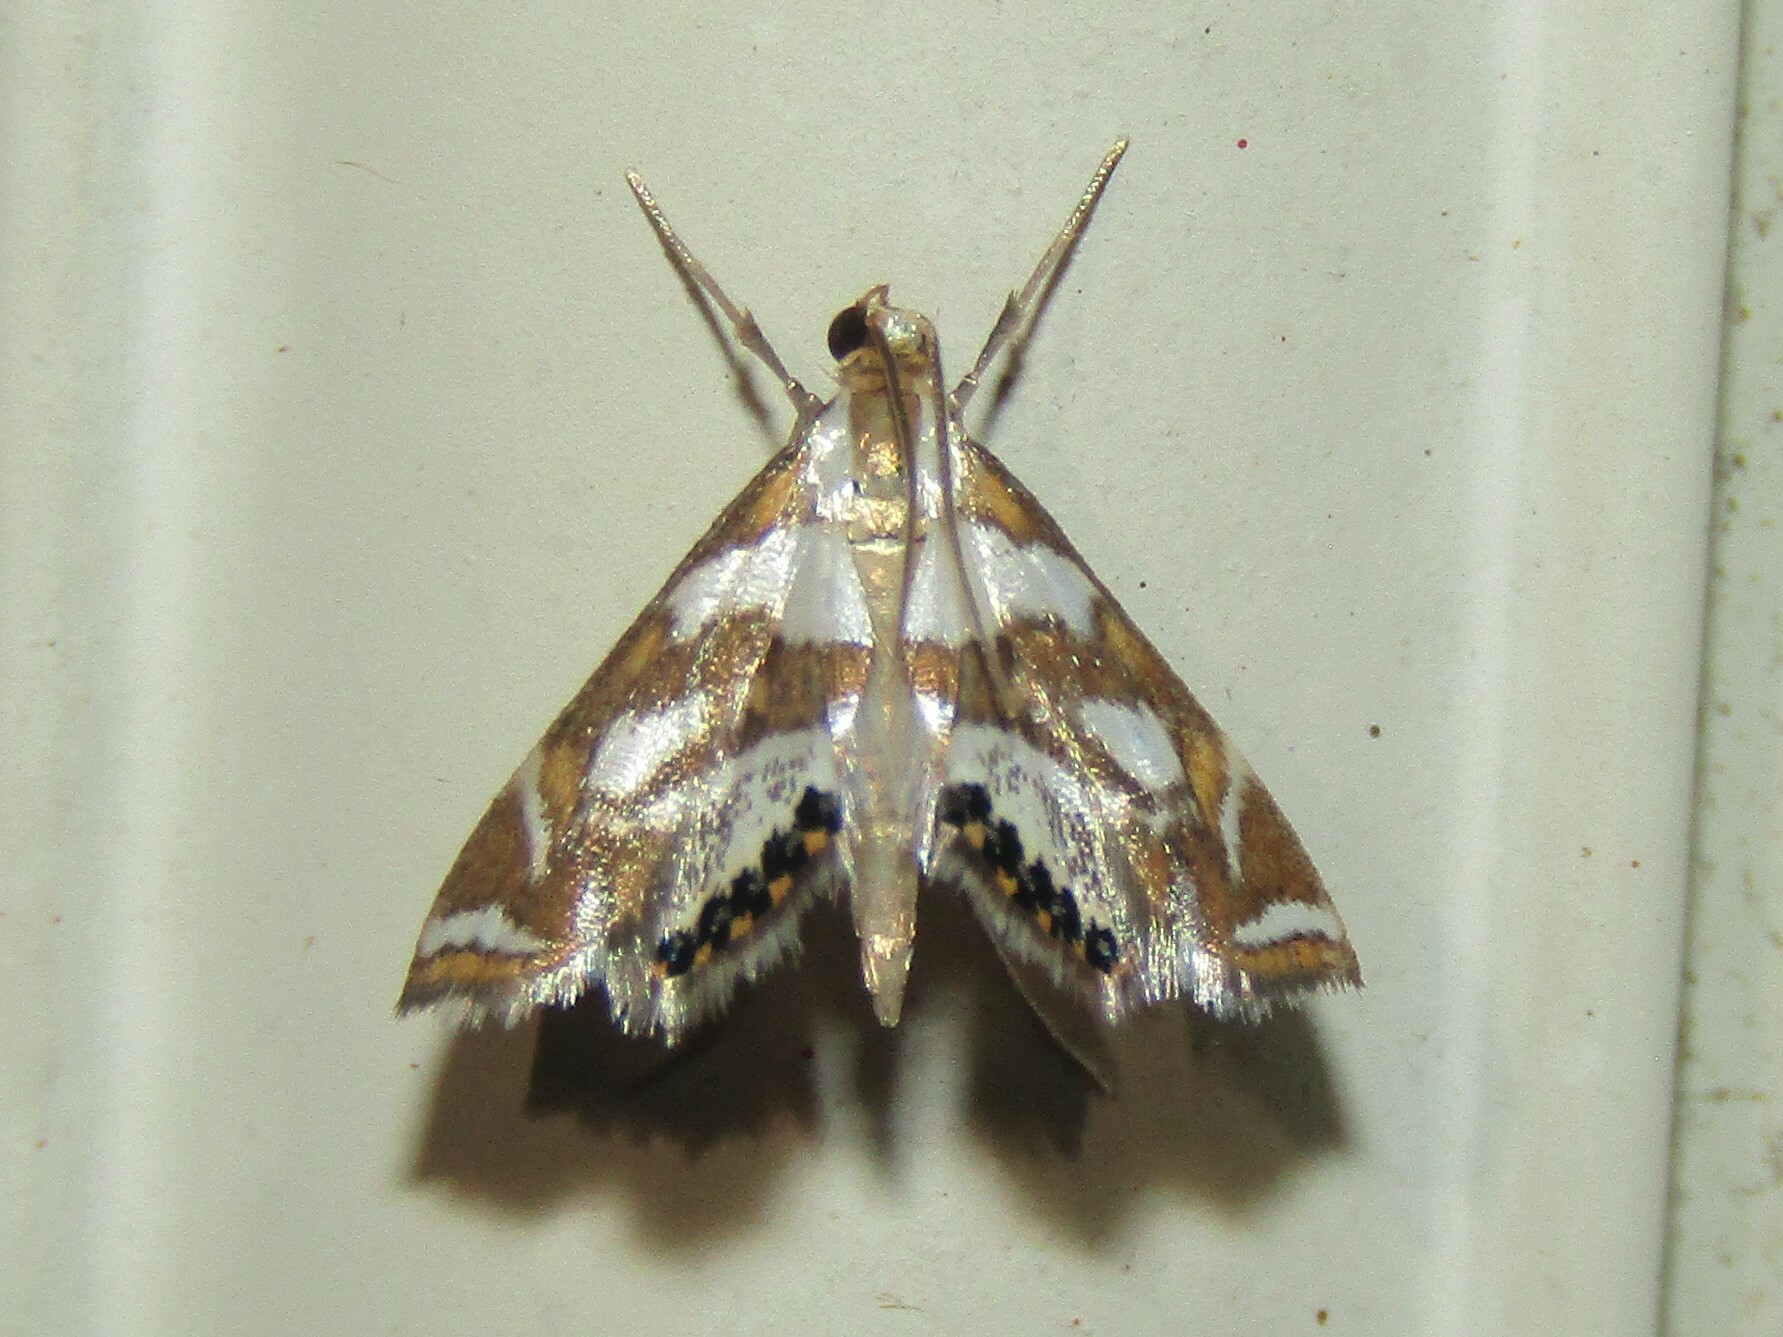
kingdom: Animalia
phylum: Arthropoda
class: Insecta
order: Lepidoptera
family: Crambidae
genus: Chrysendeton
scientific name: Chrysendeton medicinalis
